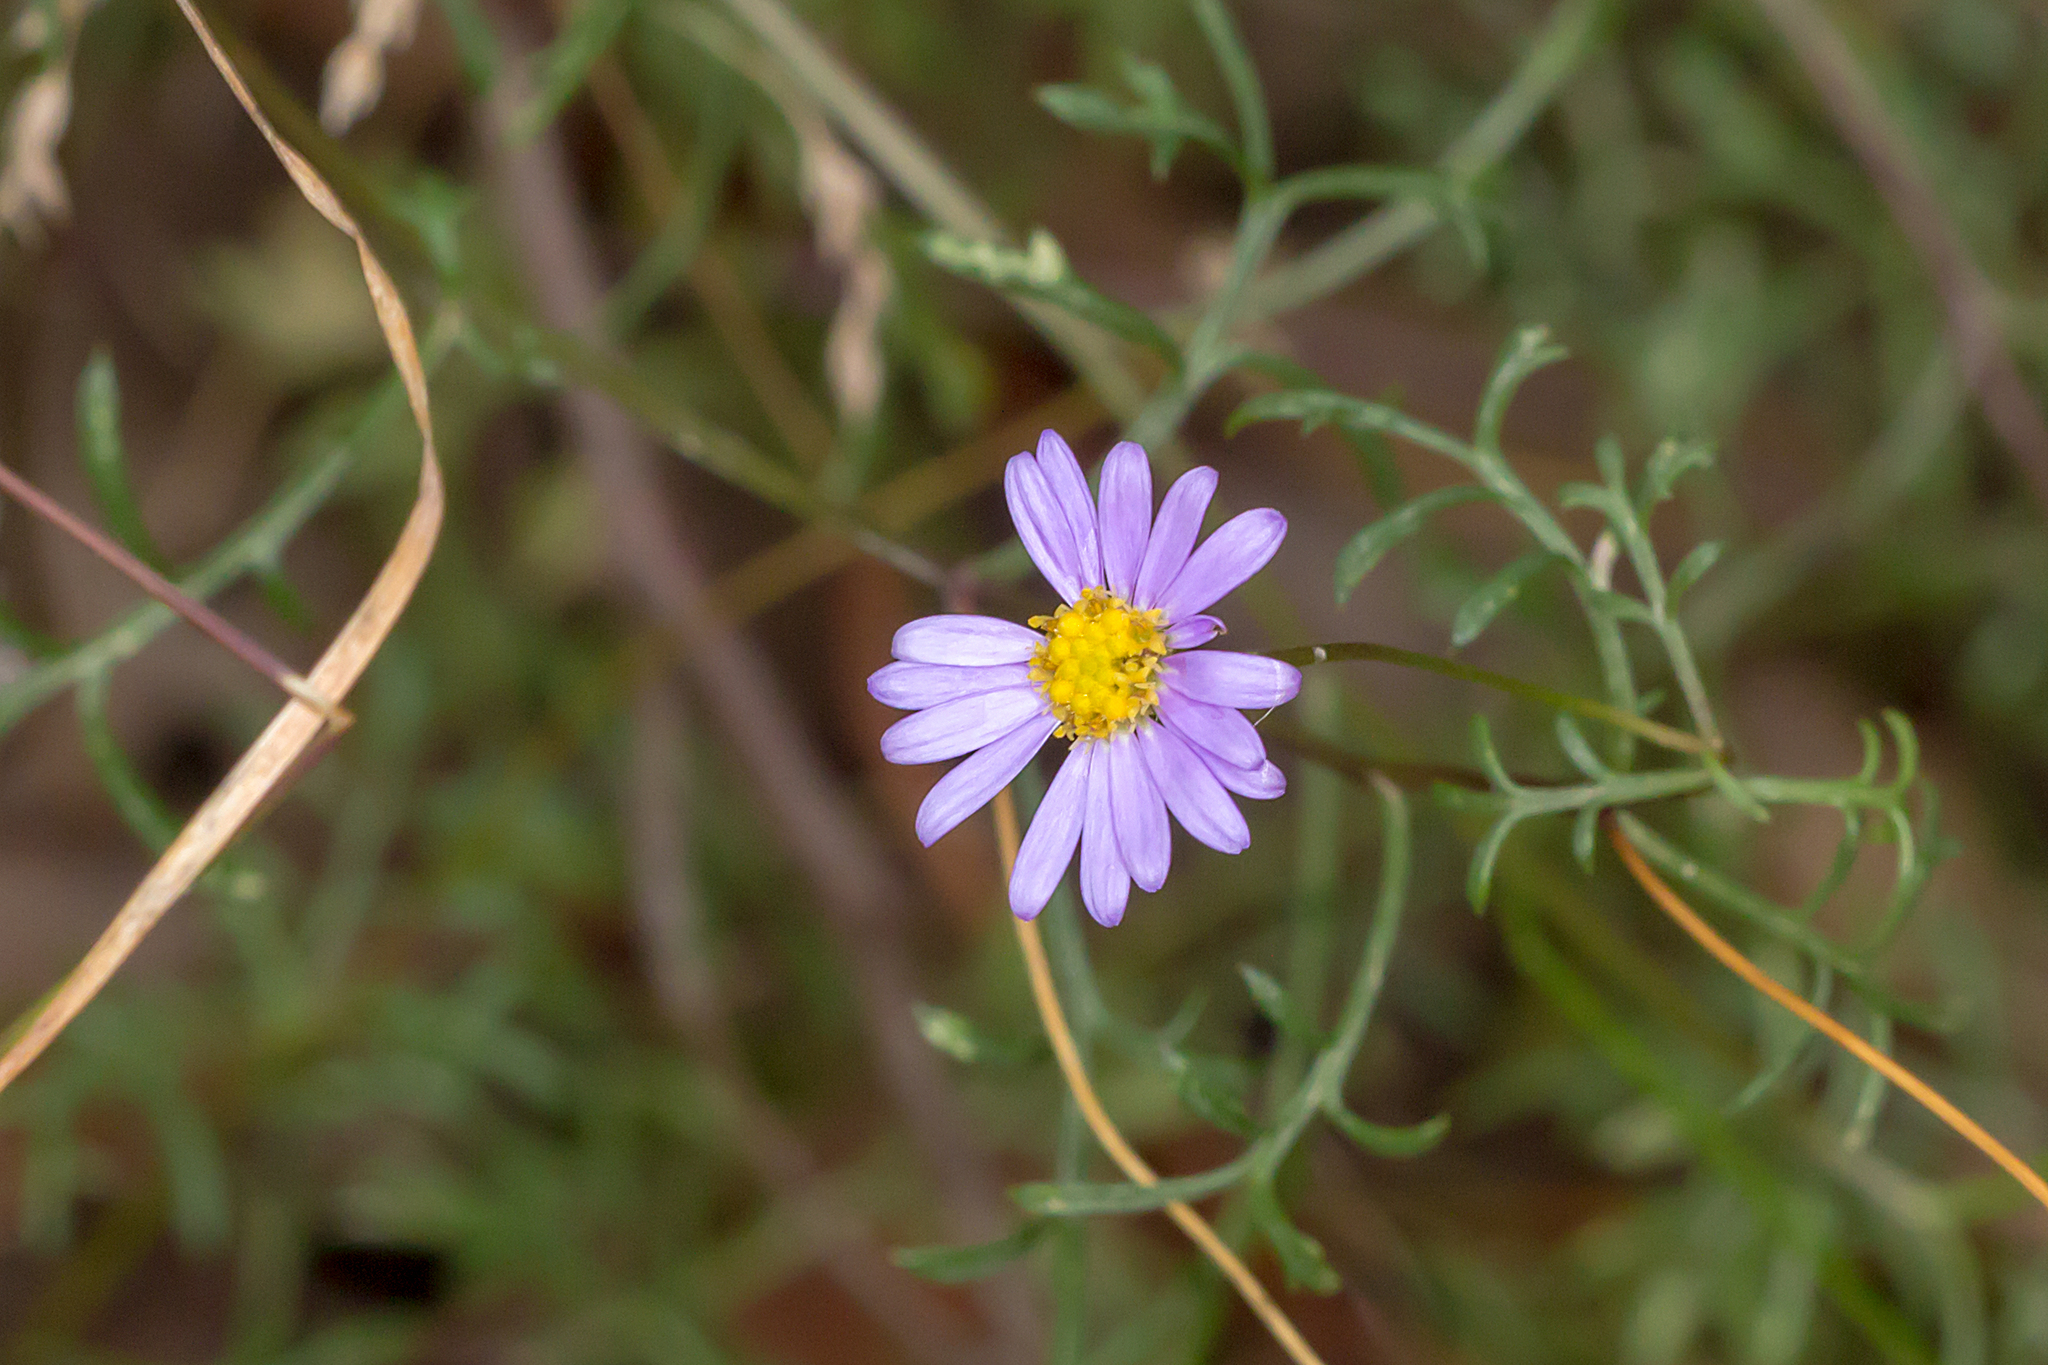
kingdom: Plantae
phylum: Tracheophyta
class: Magnoliopsida
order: Asterales
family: Asteraceae
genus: Brachyscome
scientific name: Brachyscome multifida
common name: Cut-leaf daisy
